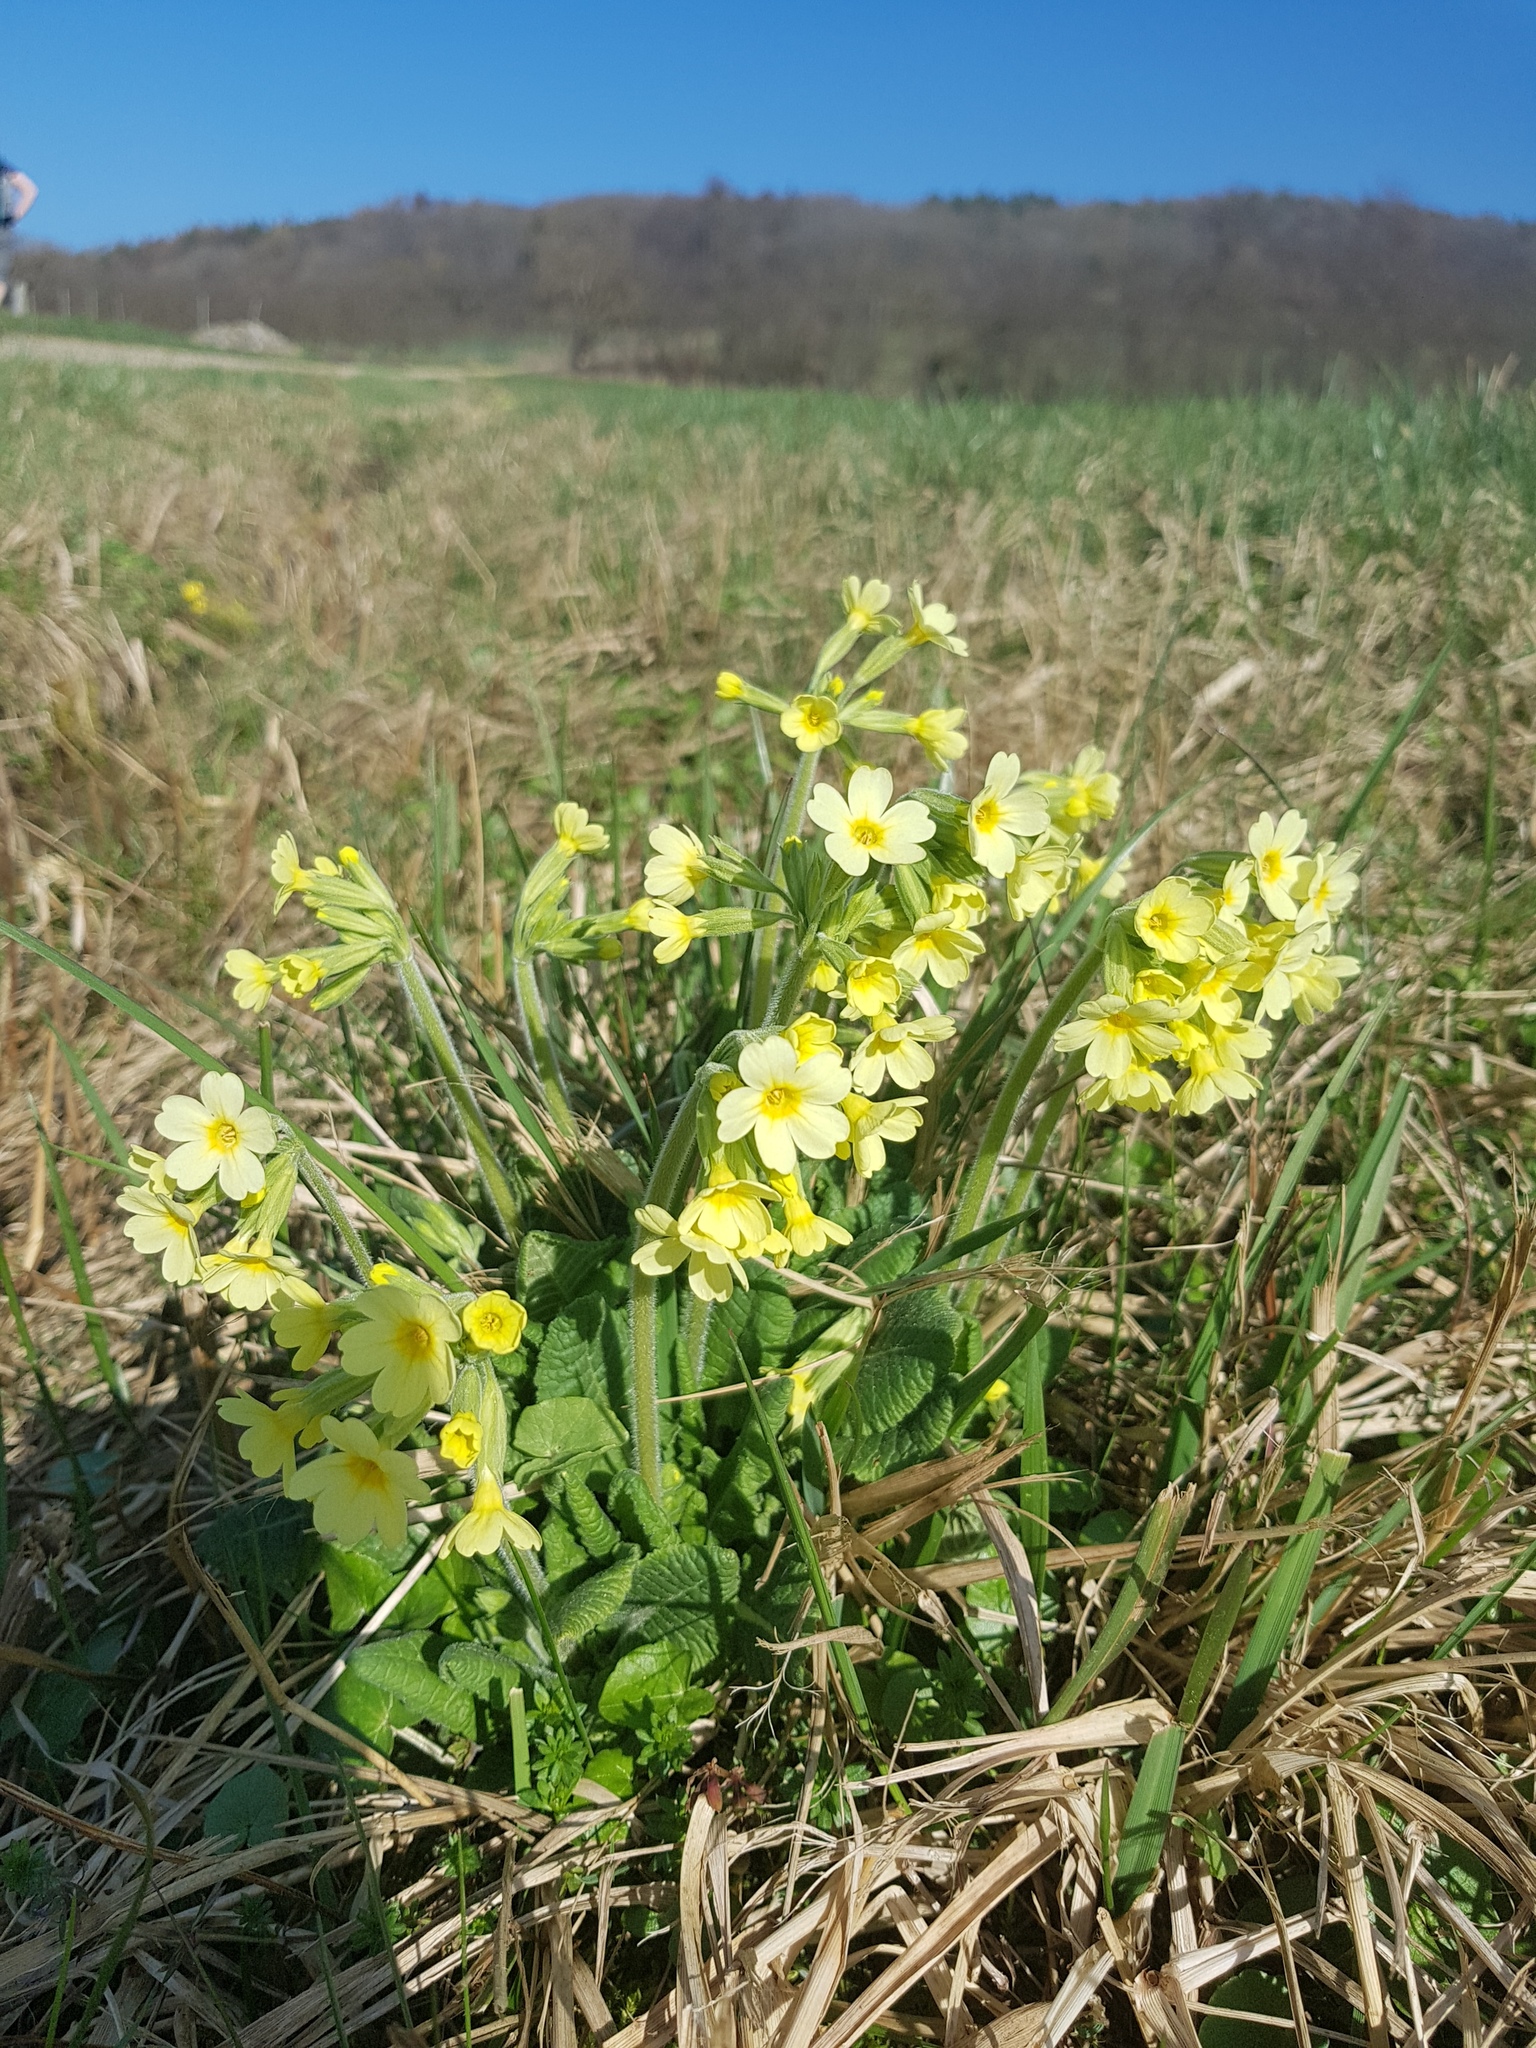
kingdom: Plantae
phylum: Tracheophyta
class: Magnoliopsida
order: Ericales
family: Primulaceae
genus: Primula
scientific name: Primula elatior
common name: Oxlip
